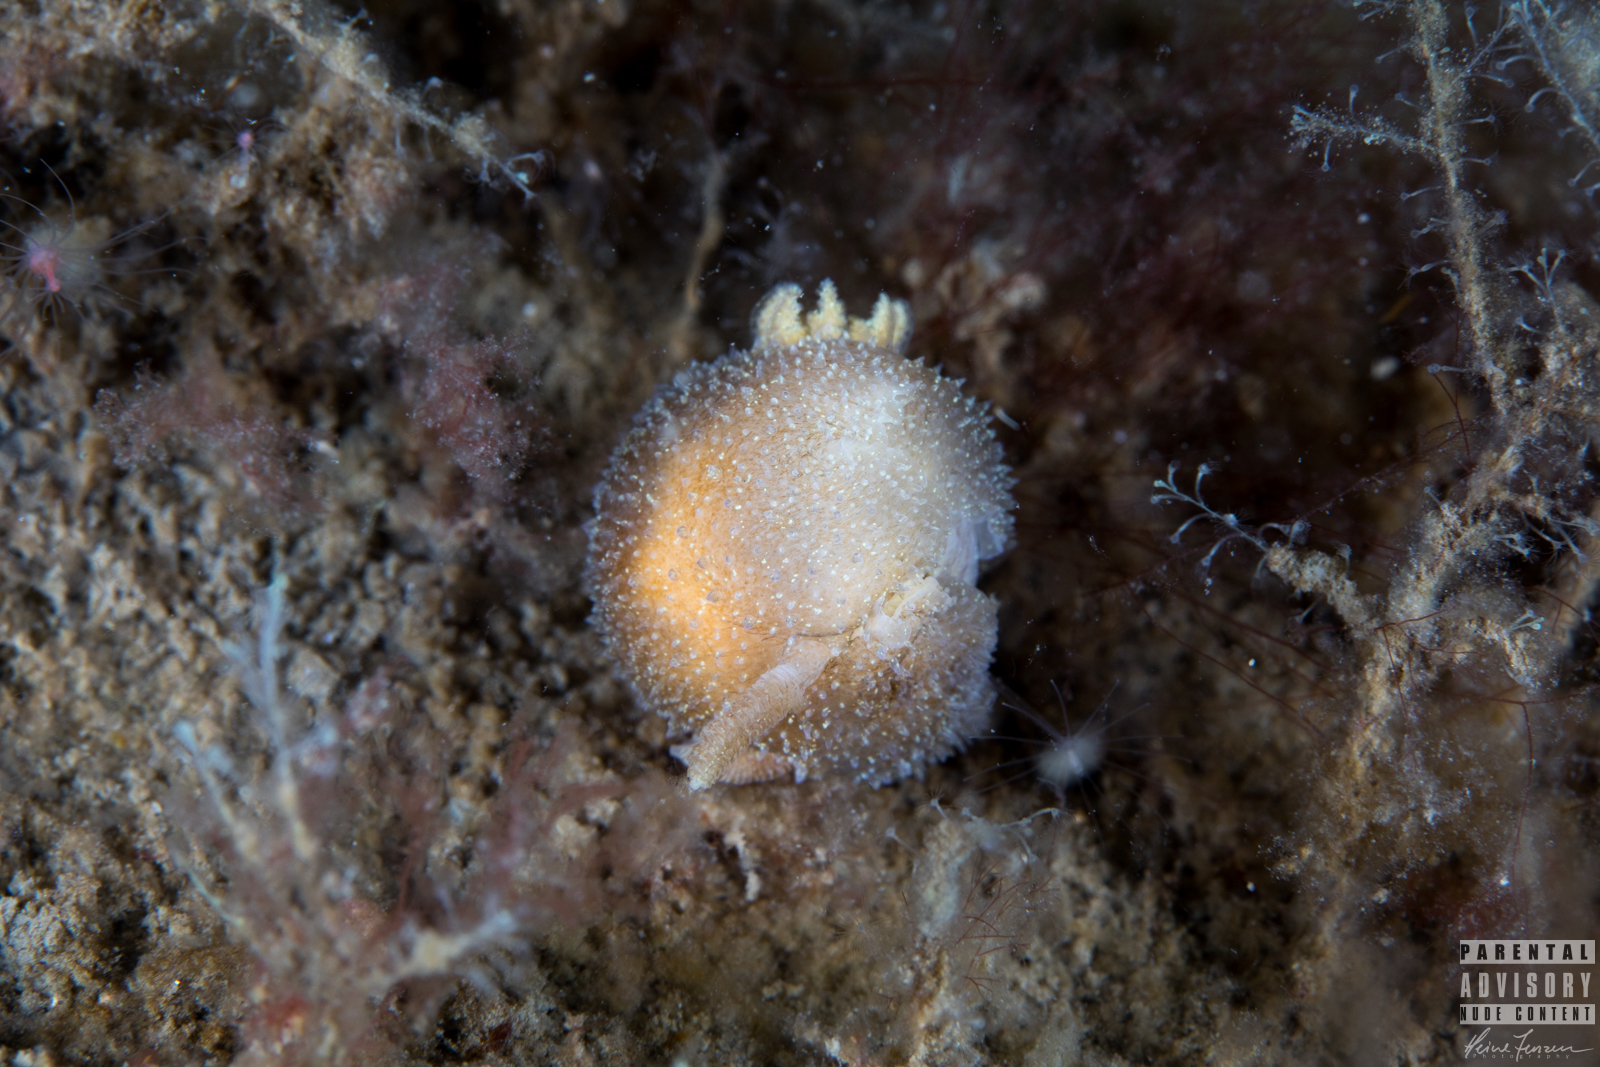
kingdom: Animalia
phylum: Mollusca
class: Gastropoda
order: Nudibranchia
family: Onchidorididae
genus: Acanthodoris
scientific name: Acanthodoris pilosa
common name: Hairy spiny doris
